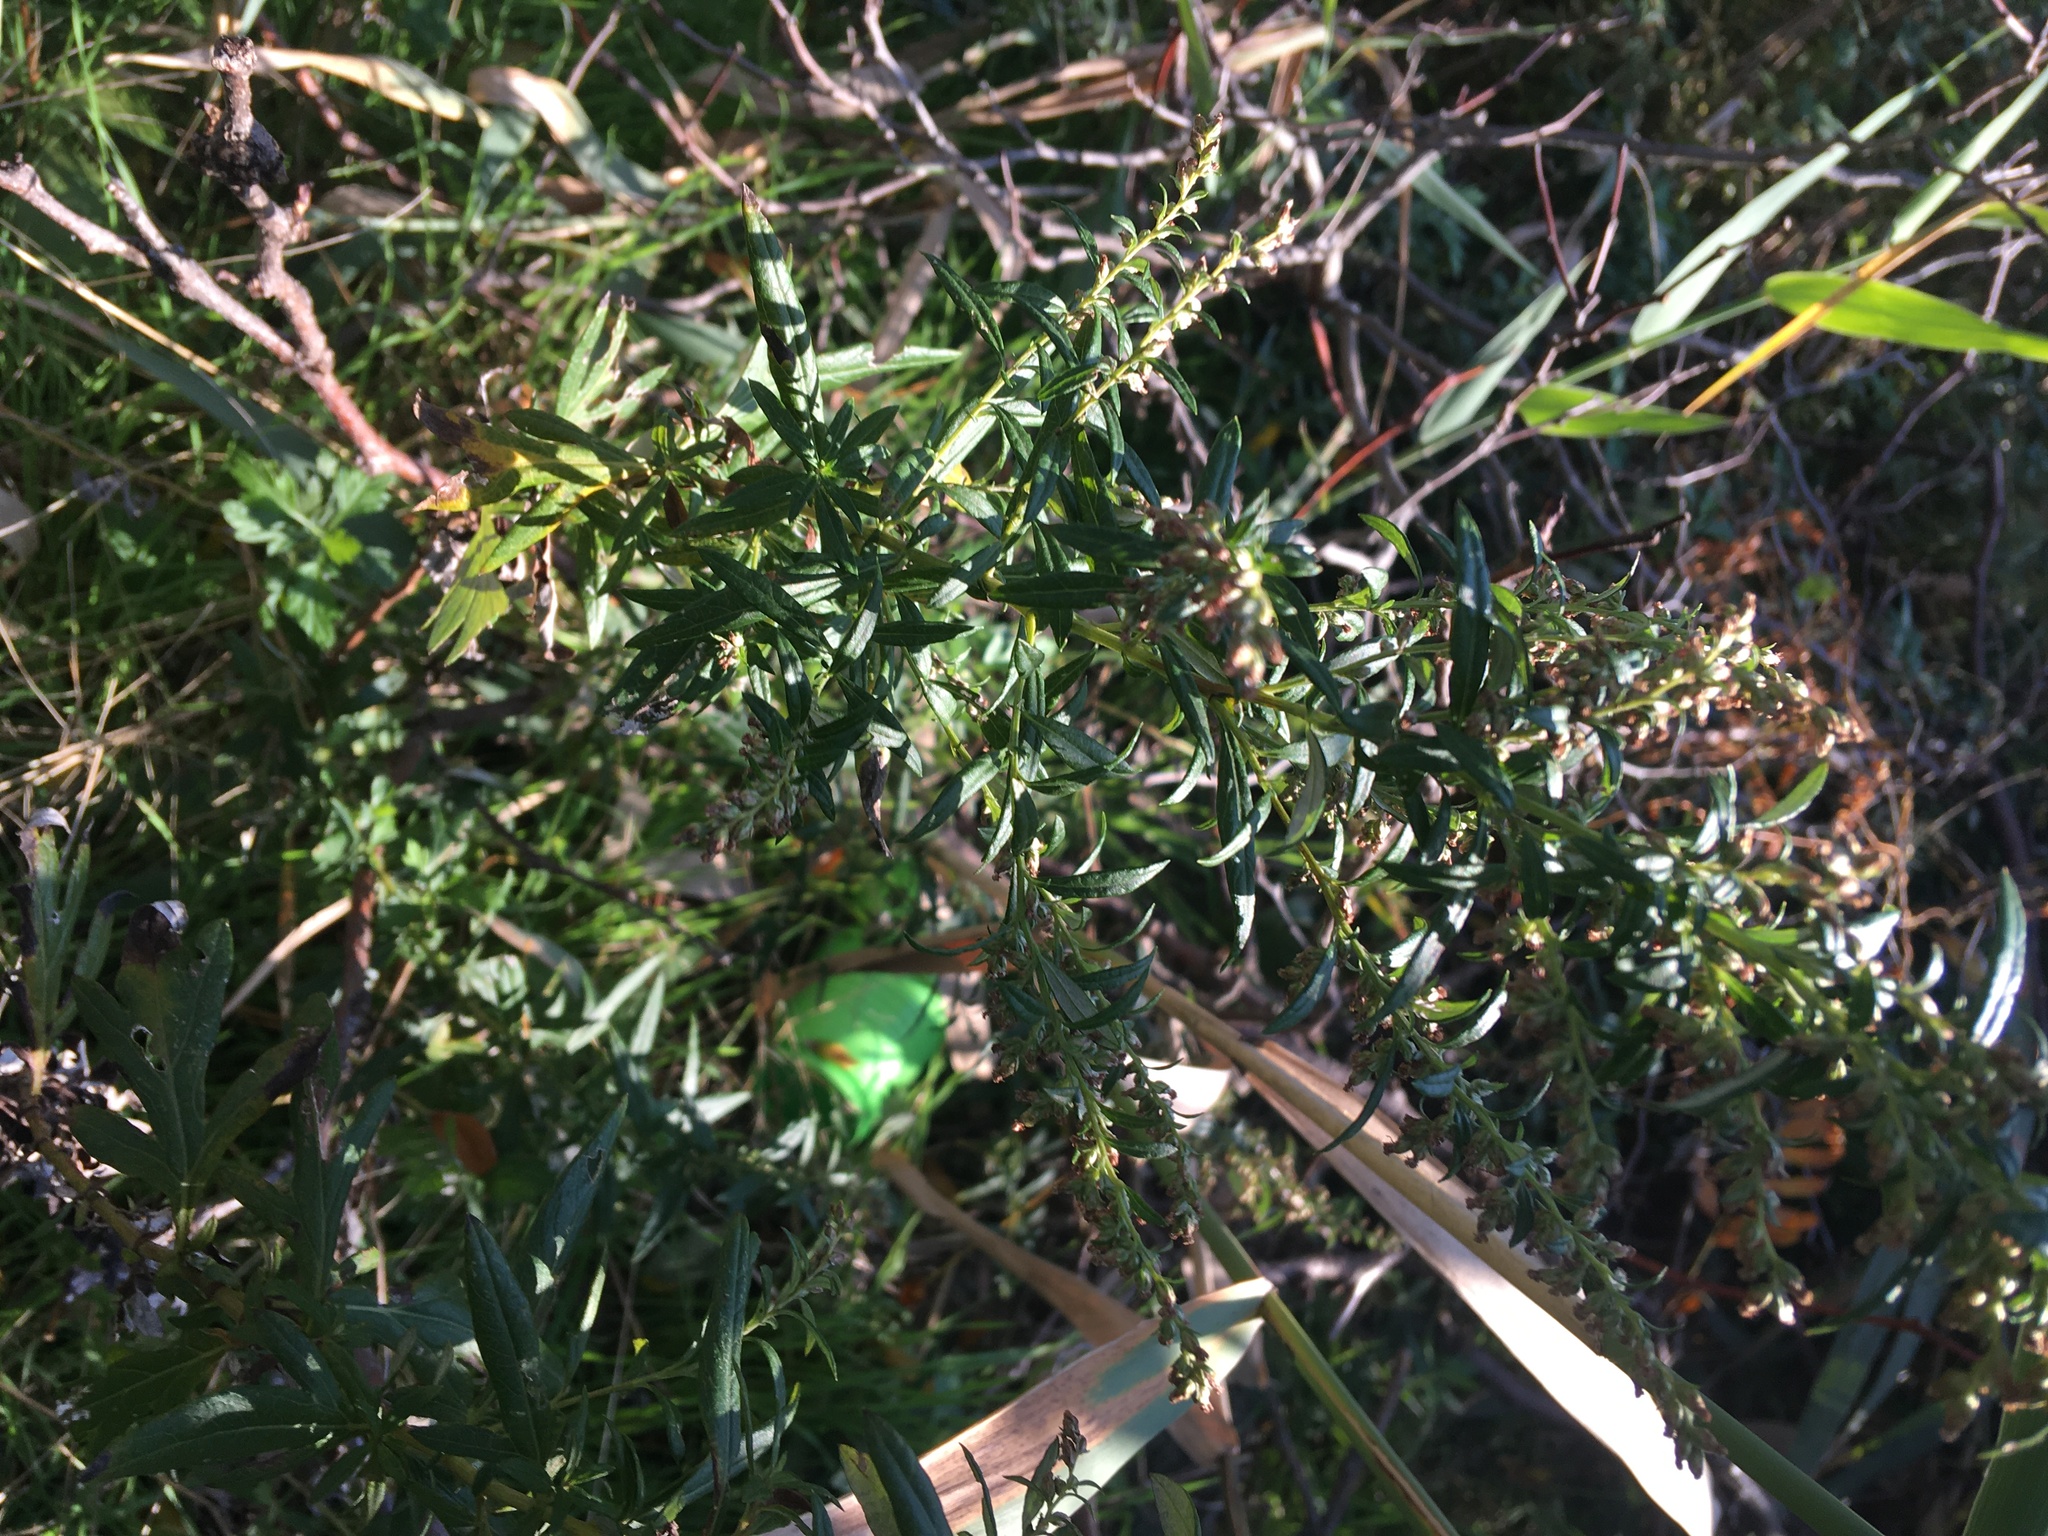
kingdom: Plantae
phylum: Tracheophyta
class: Magnoliopsida
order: Asterales
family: Asteraceae
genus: Artemisia
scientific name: Artemisia vulgaris
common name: Mugwort
